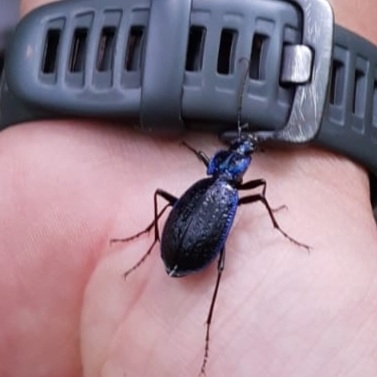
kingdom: Animalia
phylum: Arthropoda
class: Insecta
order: Coleoptera
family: Carabidae
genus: Carabus
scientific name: Carabus lefebvrei
